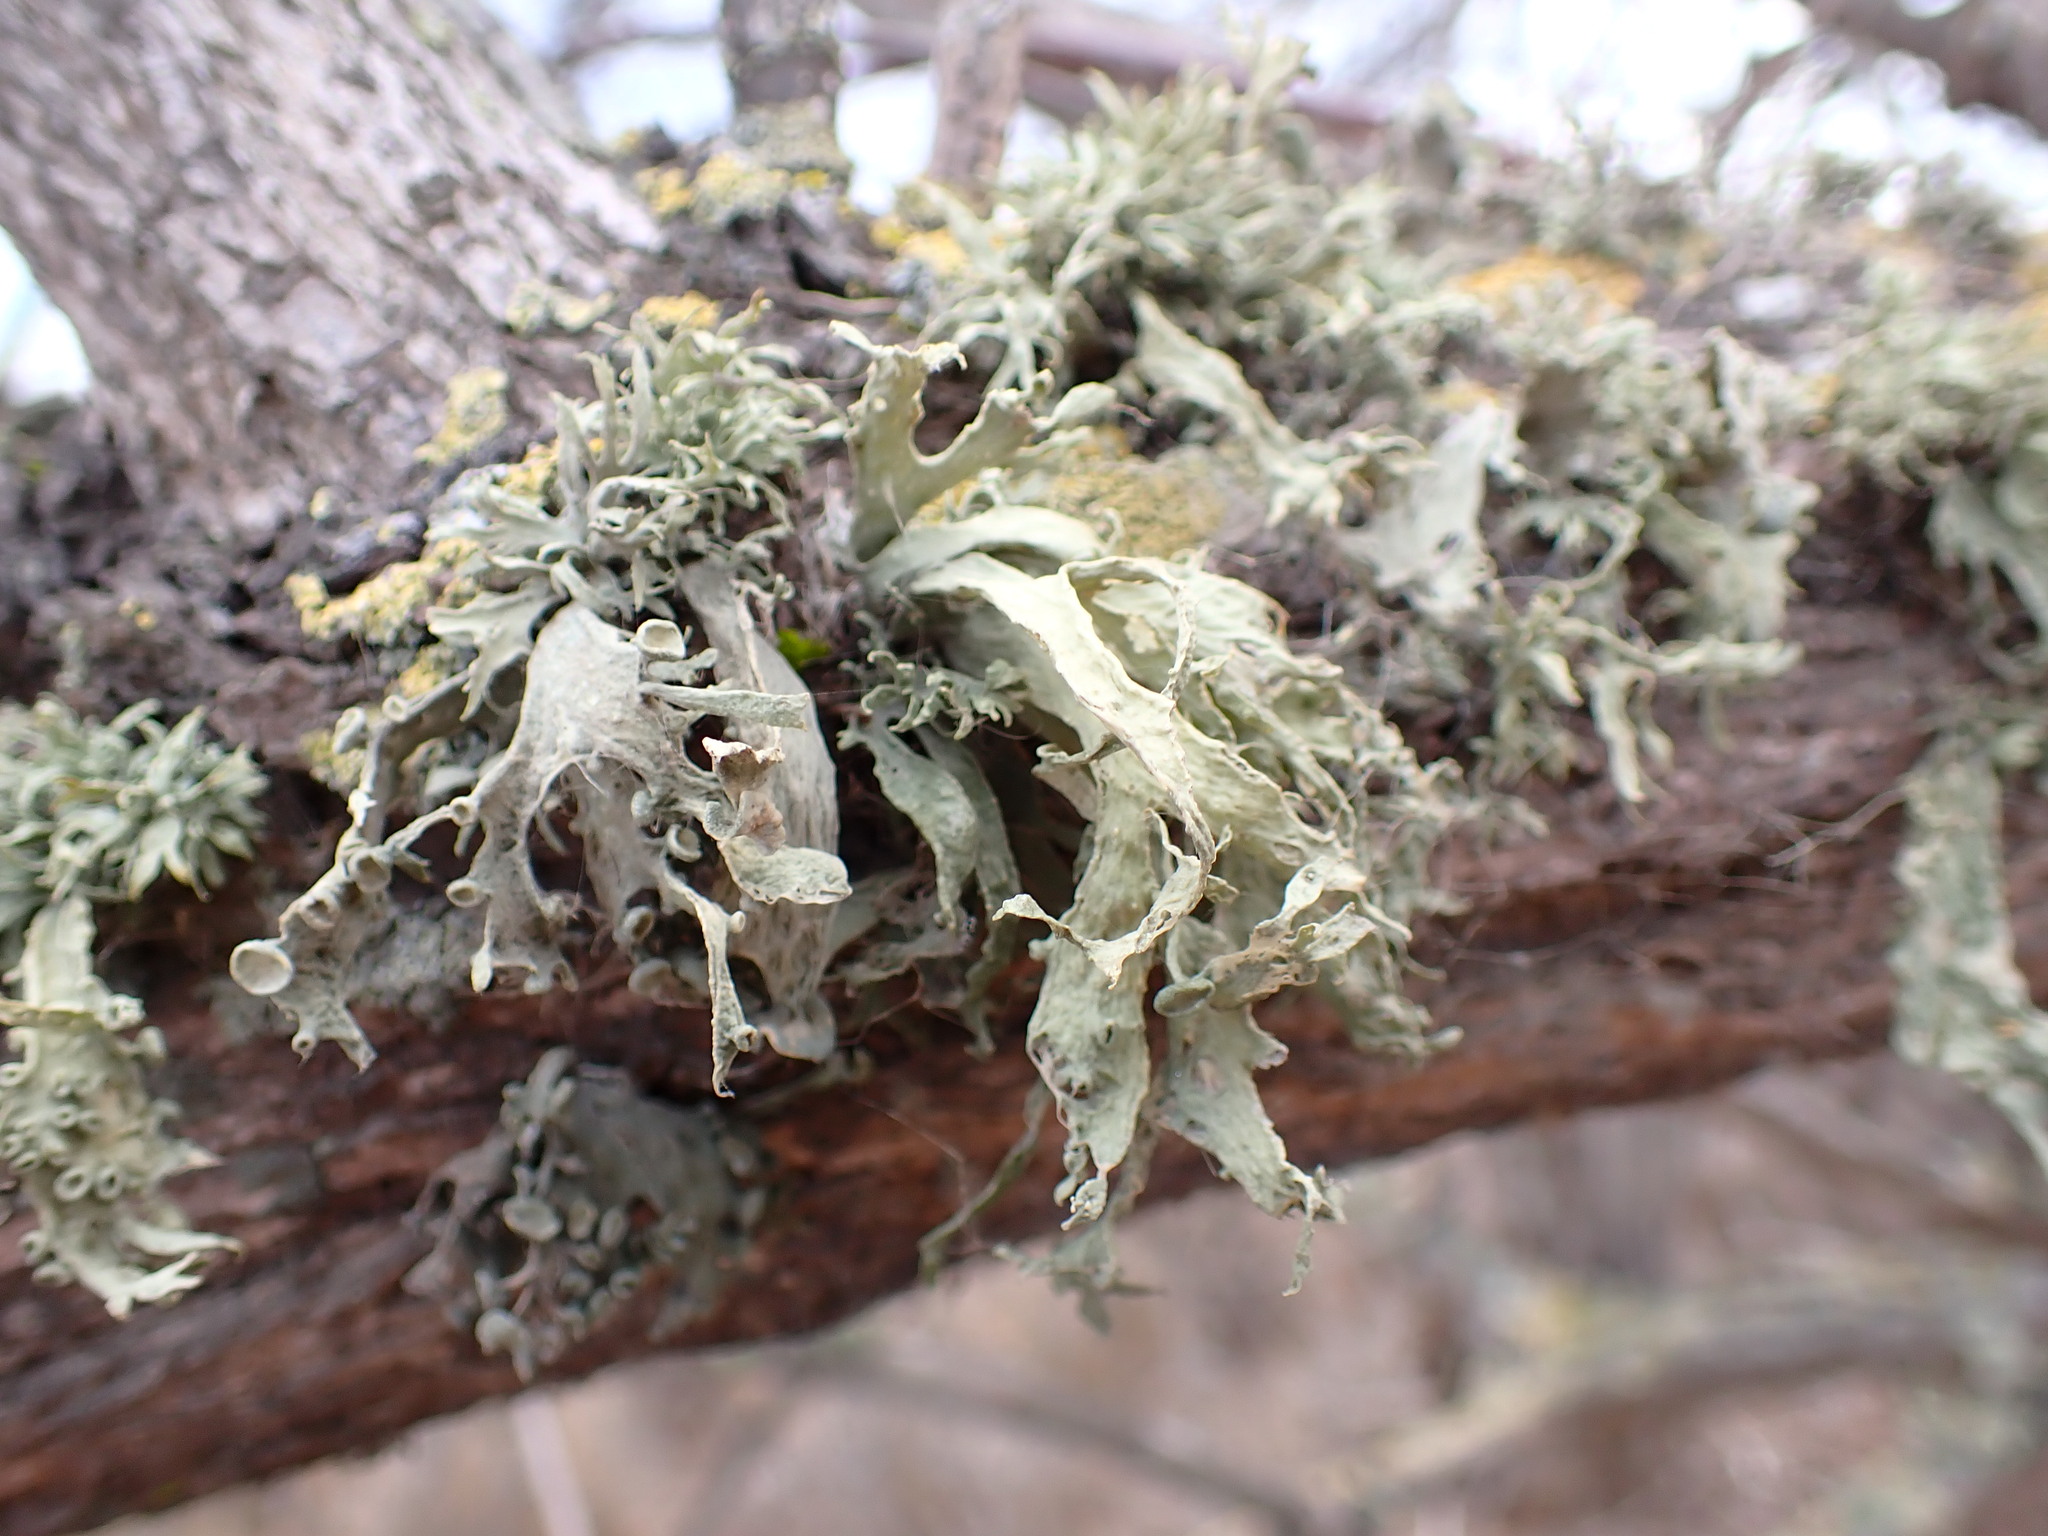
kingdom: Fungi
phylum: Ascomycota
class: Lecanoromycetes
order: Lecanorales
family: Ramalinaceae
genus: Ramalina
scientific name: Ramalina leptocarpha
